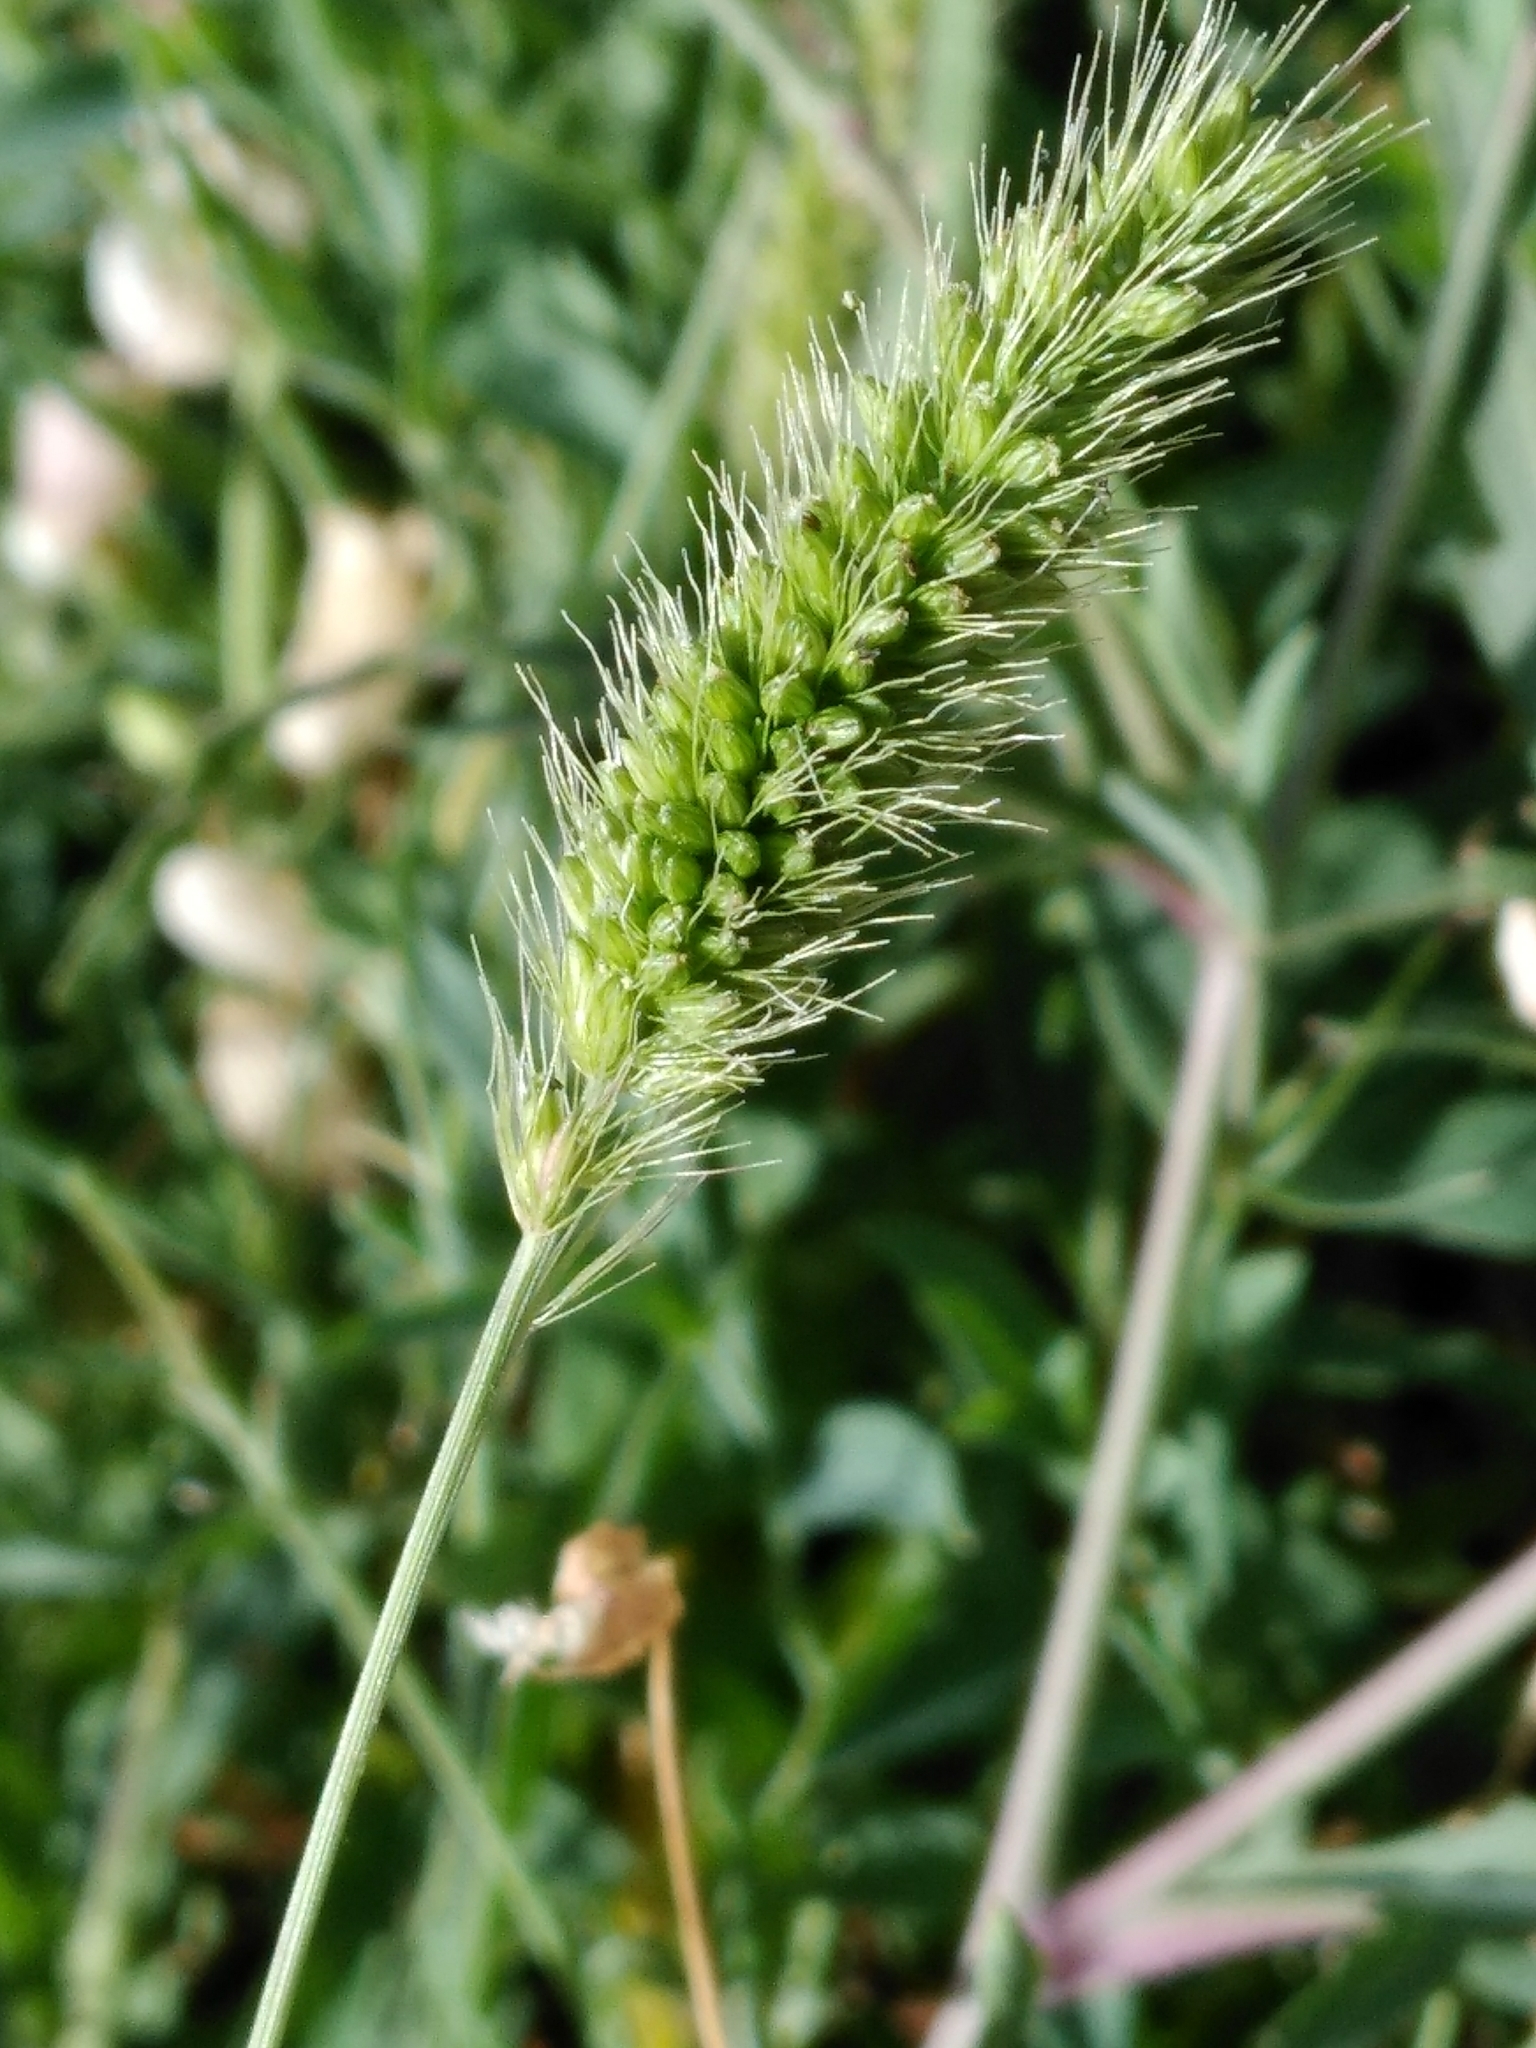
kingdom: Plantae
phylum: Tracheophyta
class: Liliopsida
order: Poales
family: Poaceae
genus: Setaria
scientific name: Setaria viridis
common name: Green bristlegrass
